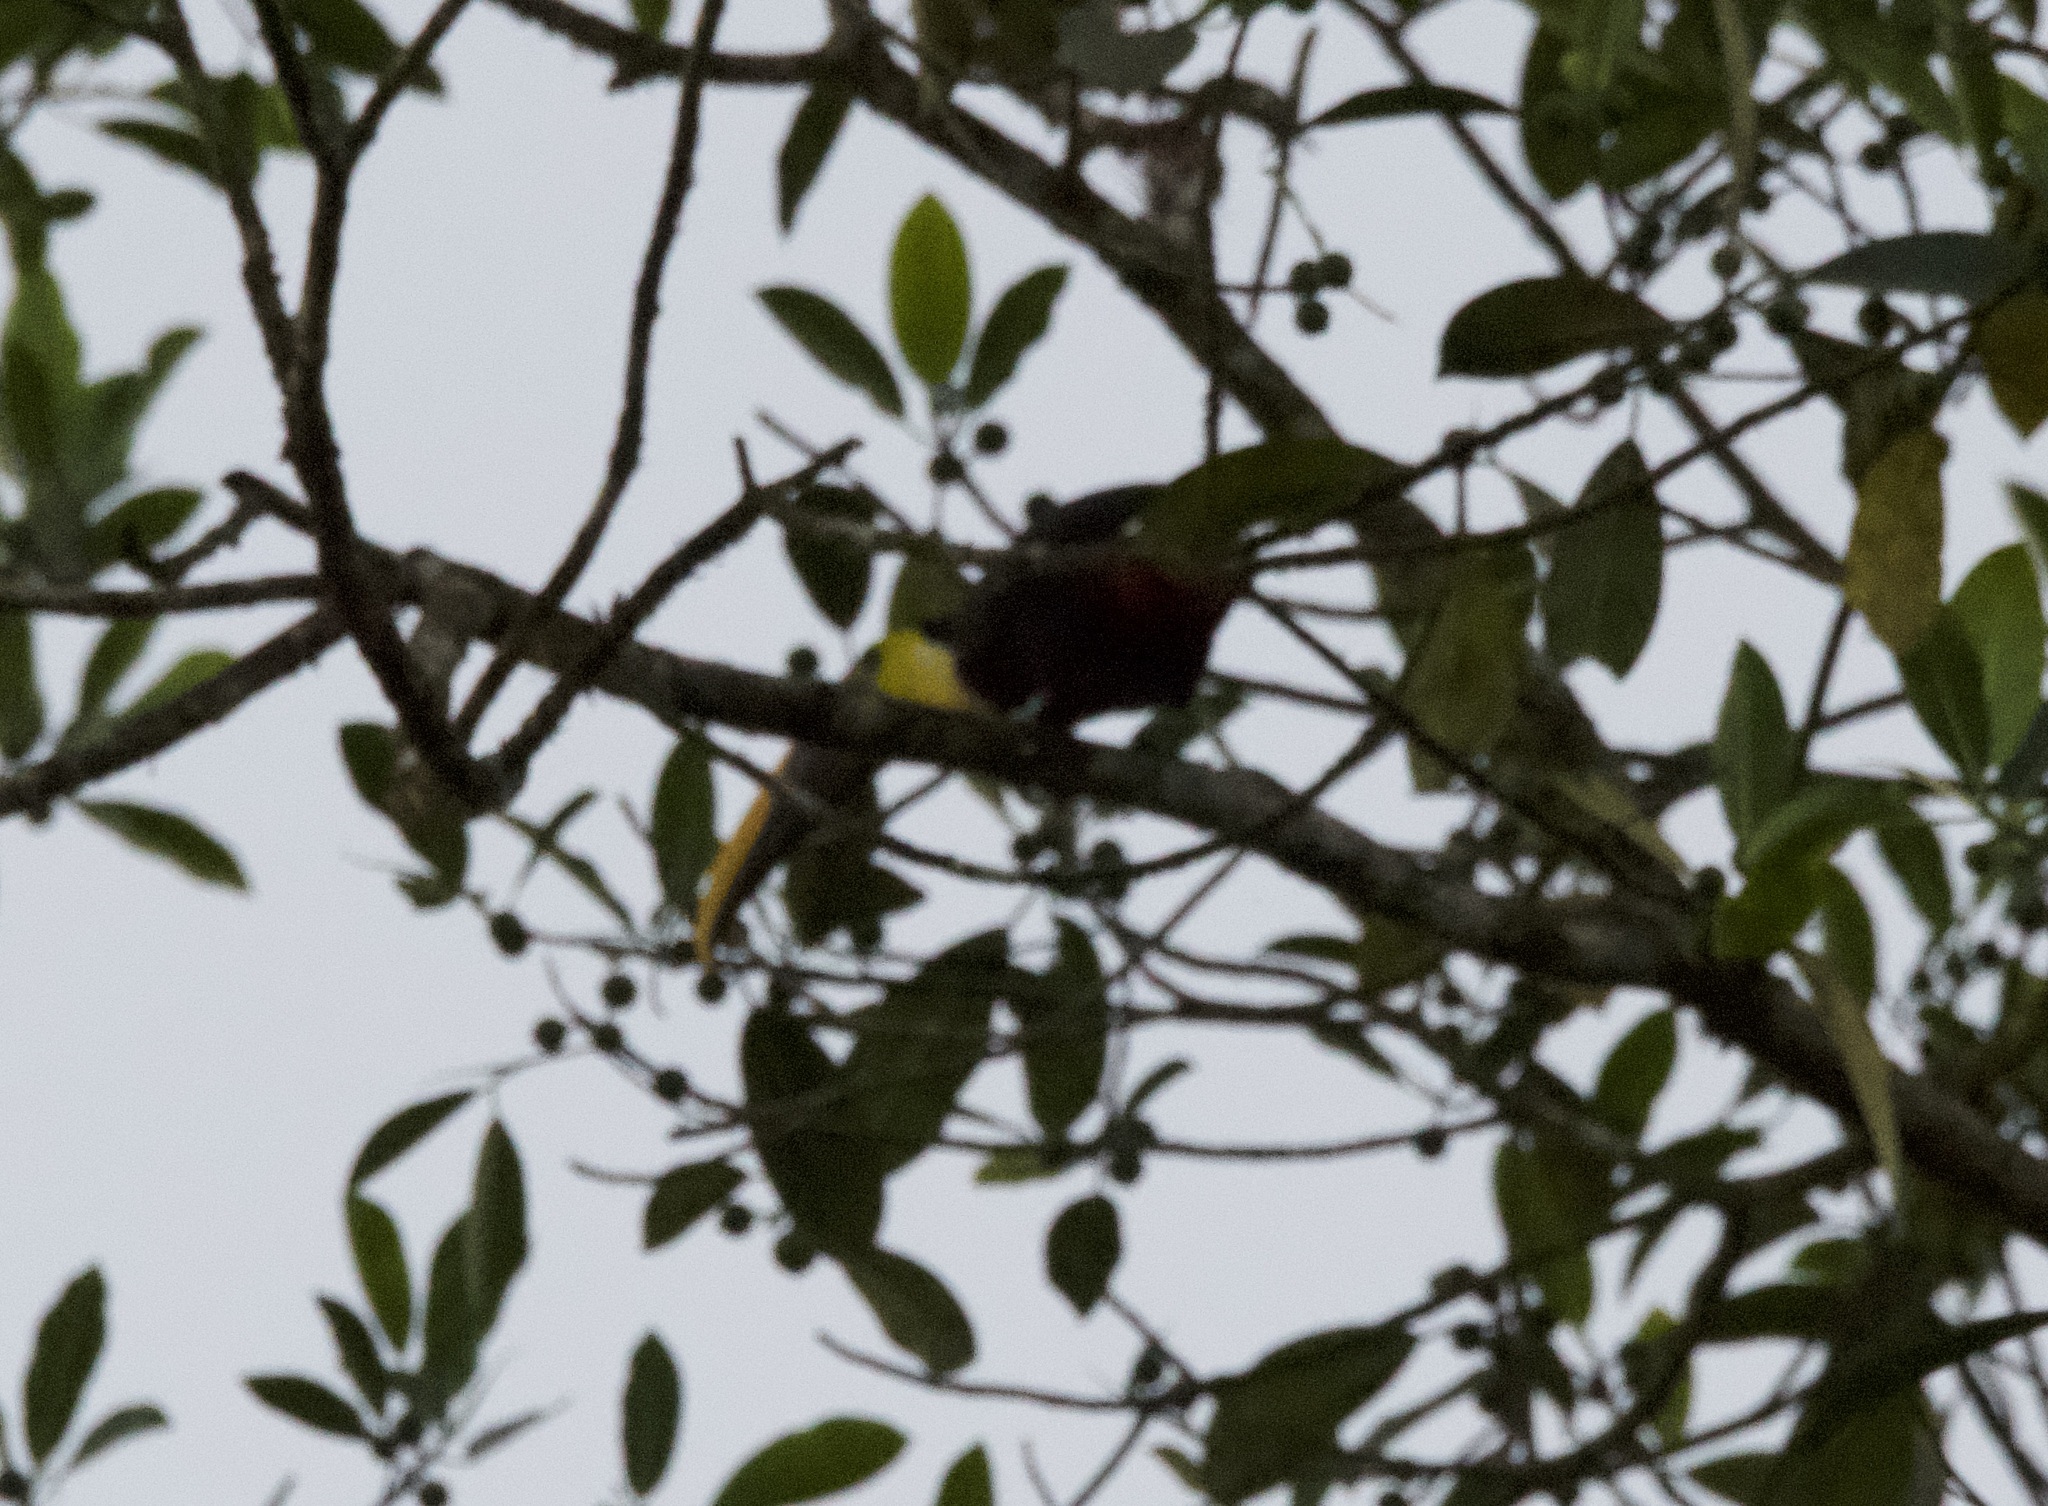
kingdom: Animalia
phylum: Chordata
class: Aves
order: Piciformes
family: Ramphastidae
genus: Ramphastos
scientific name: Ramphastos ambiguus
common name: Yellow-throated toucan
